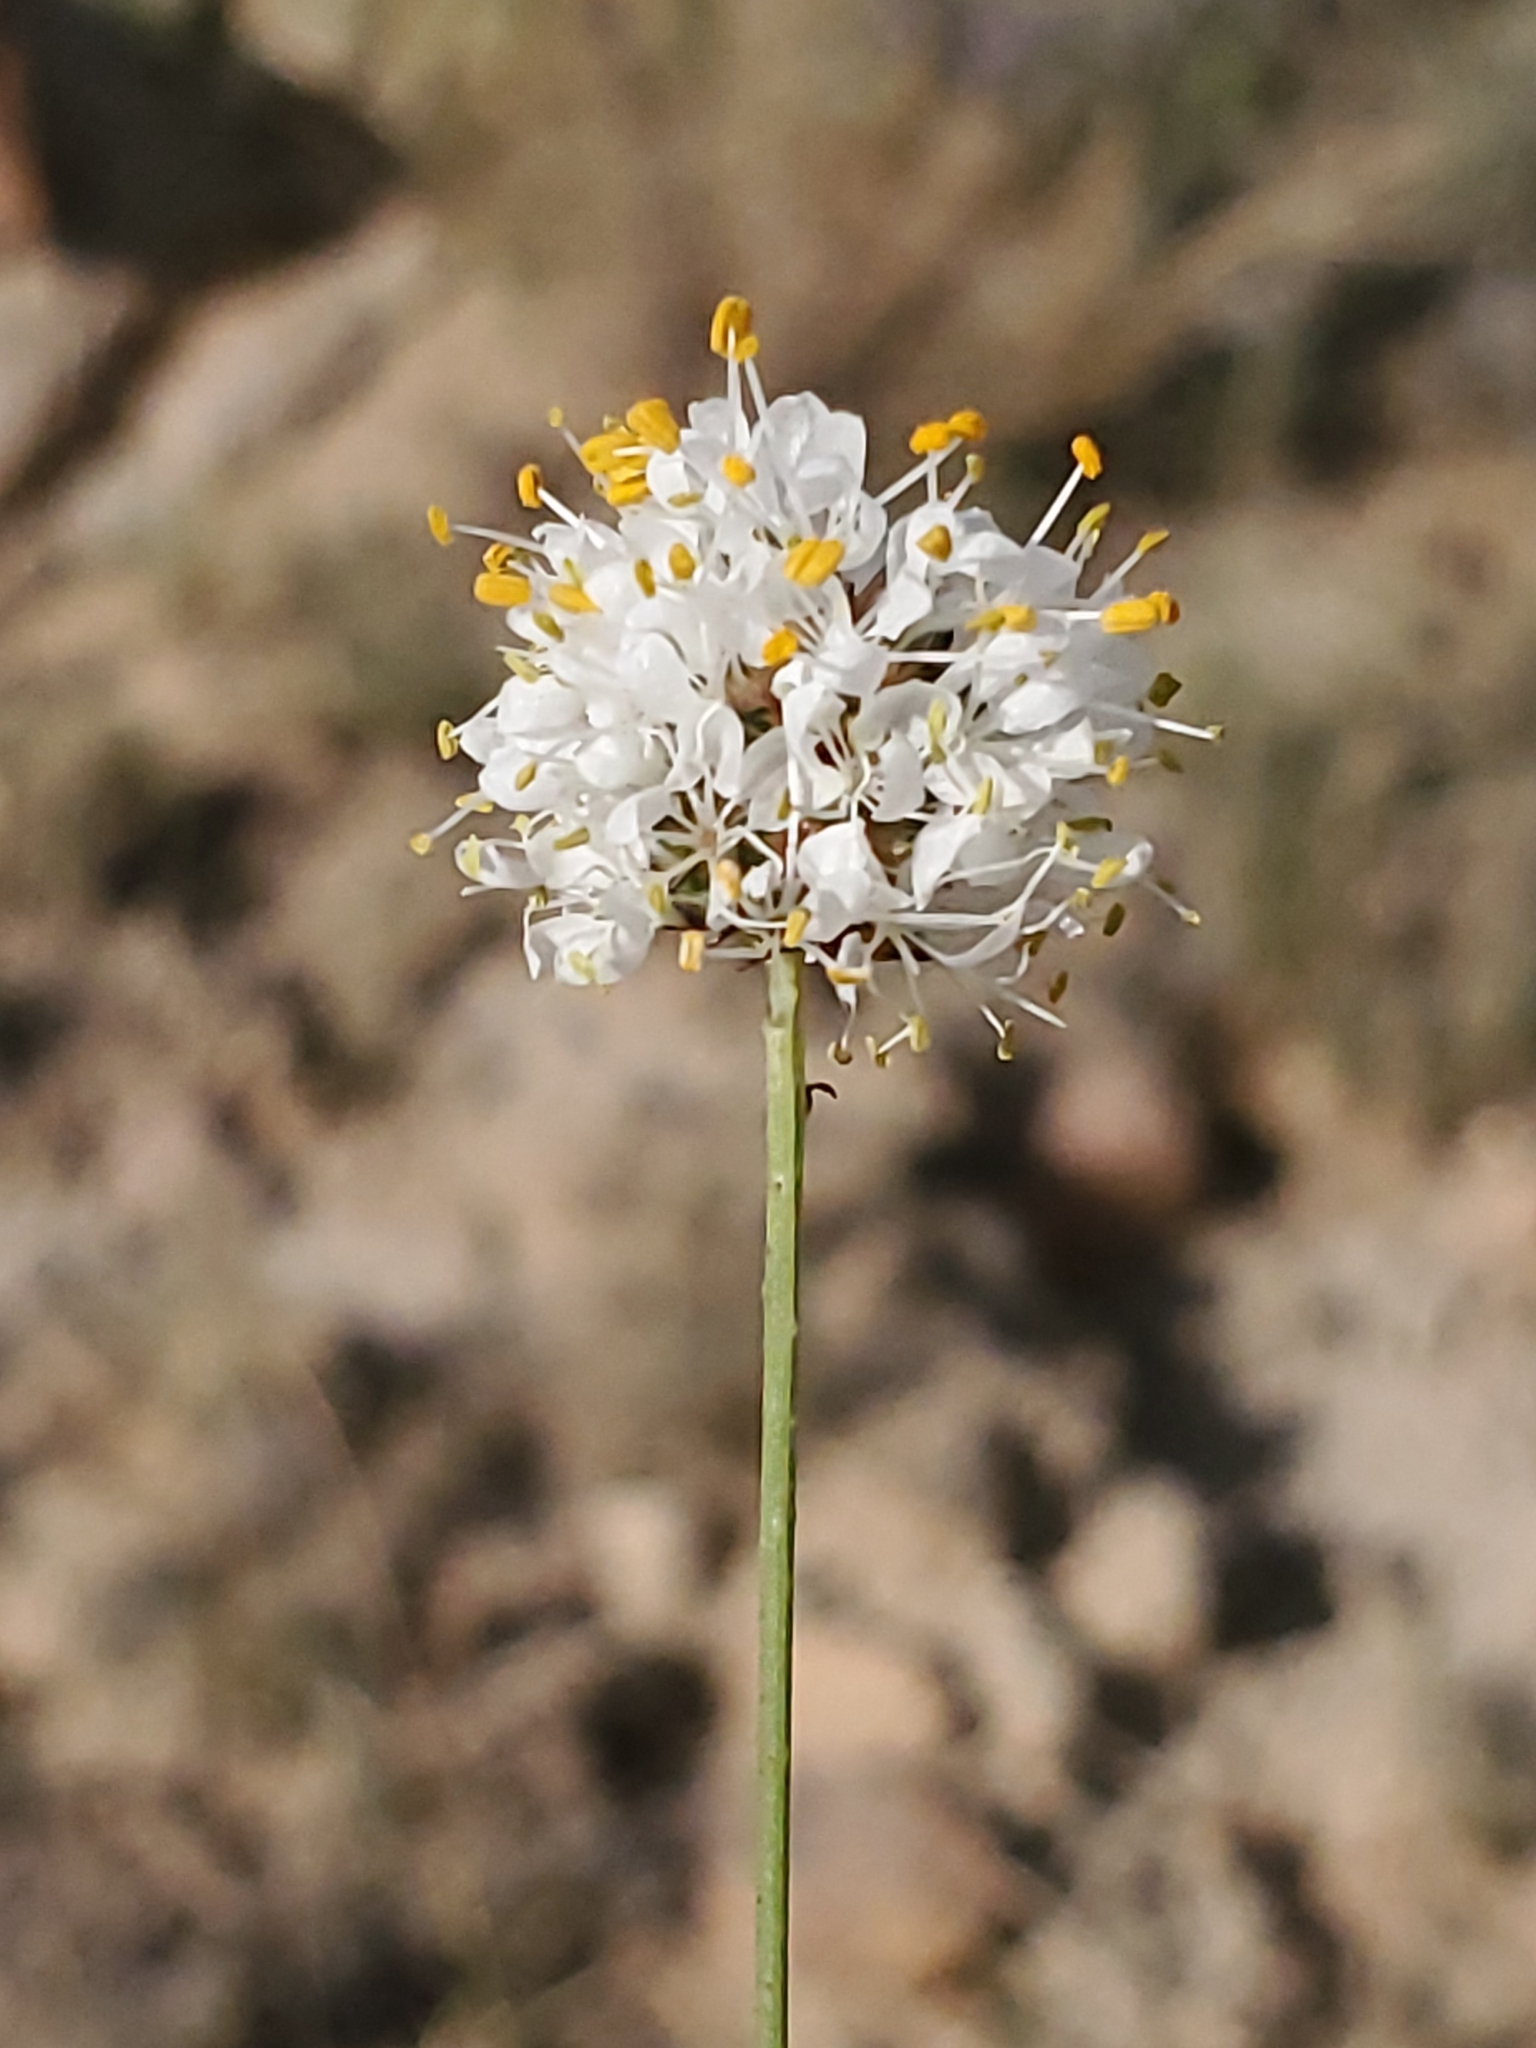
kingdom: Plantae
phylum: Tracheophyta
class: Magnoliopsida
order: Fabales
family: Fabaceae
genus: Dalea
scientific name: Dalea candida
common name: White prairie-clover
